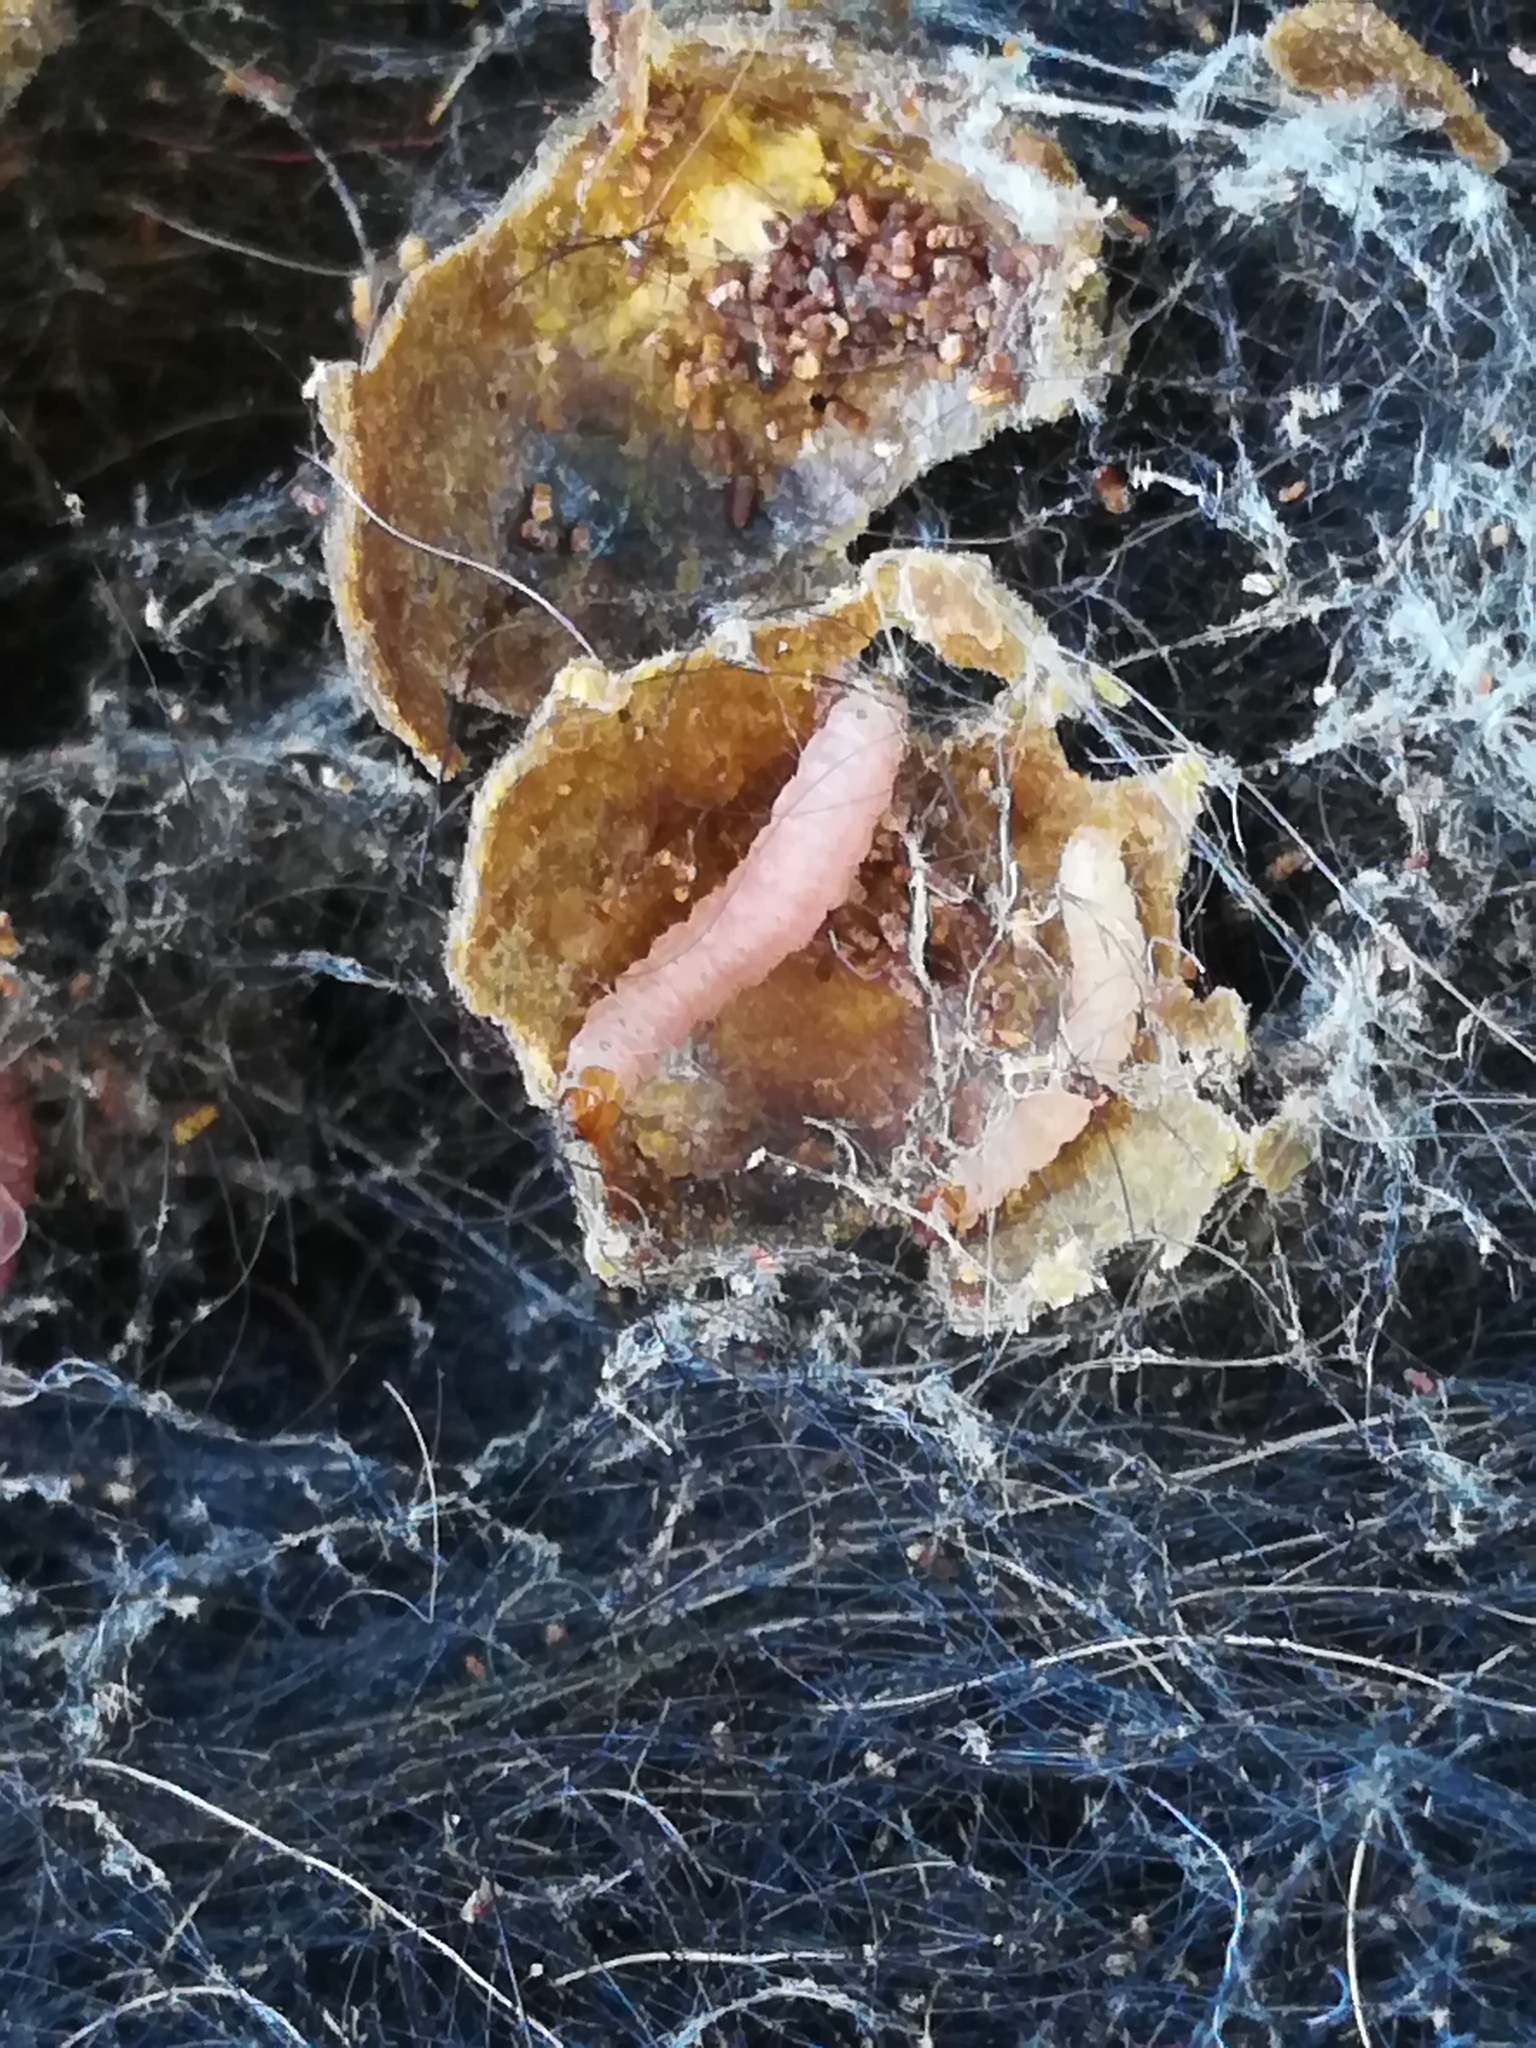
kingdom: Animalia
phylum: Arthropoda
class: Insecta
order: Hymenoptera
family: Apidae
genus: Bombus
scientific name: Bombus perplexus
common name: Confusing bumble bee
